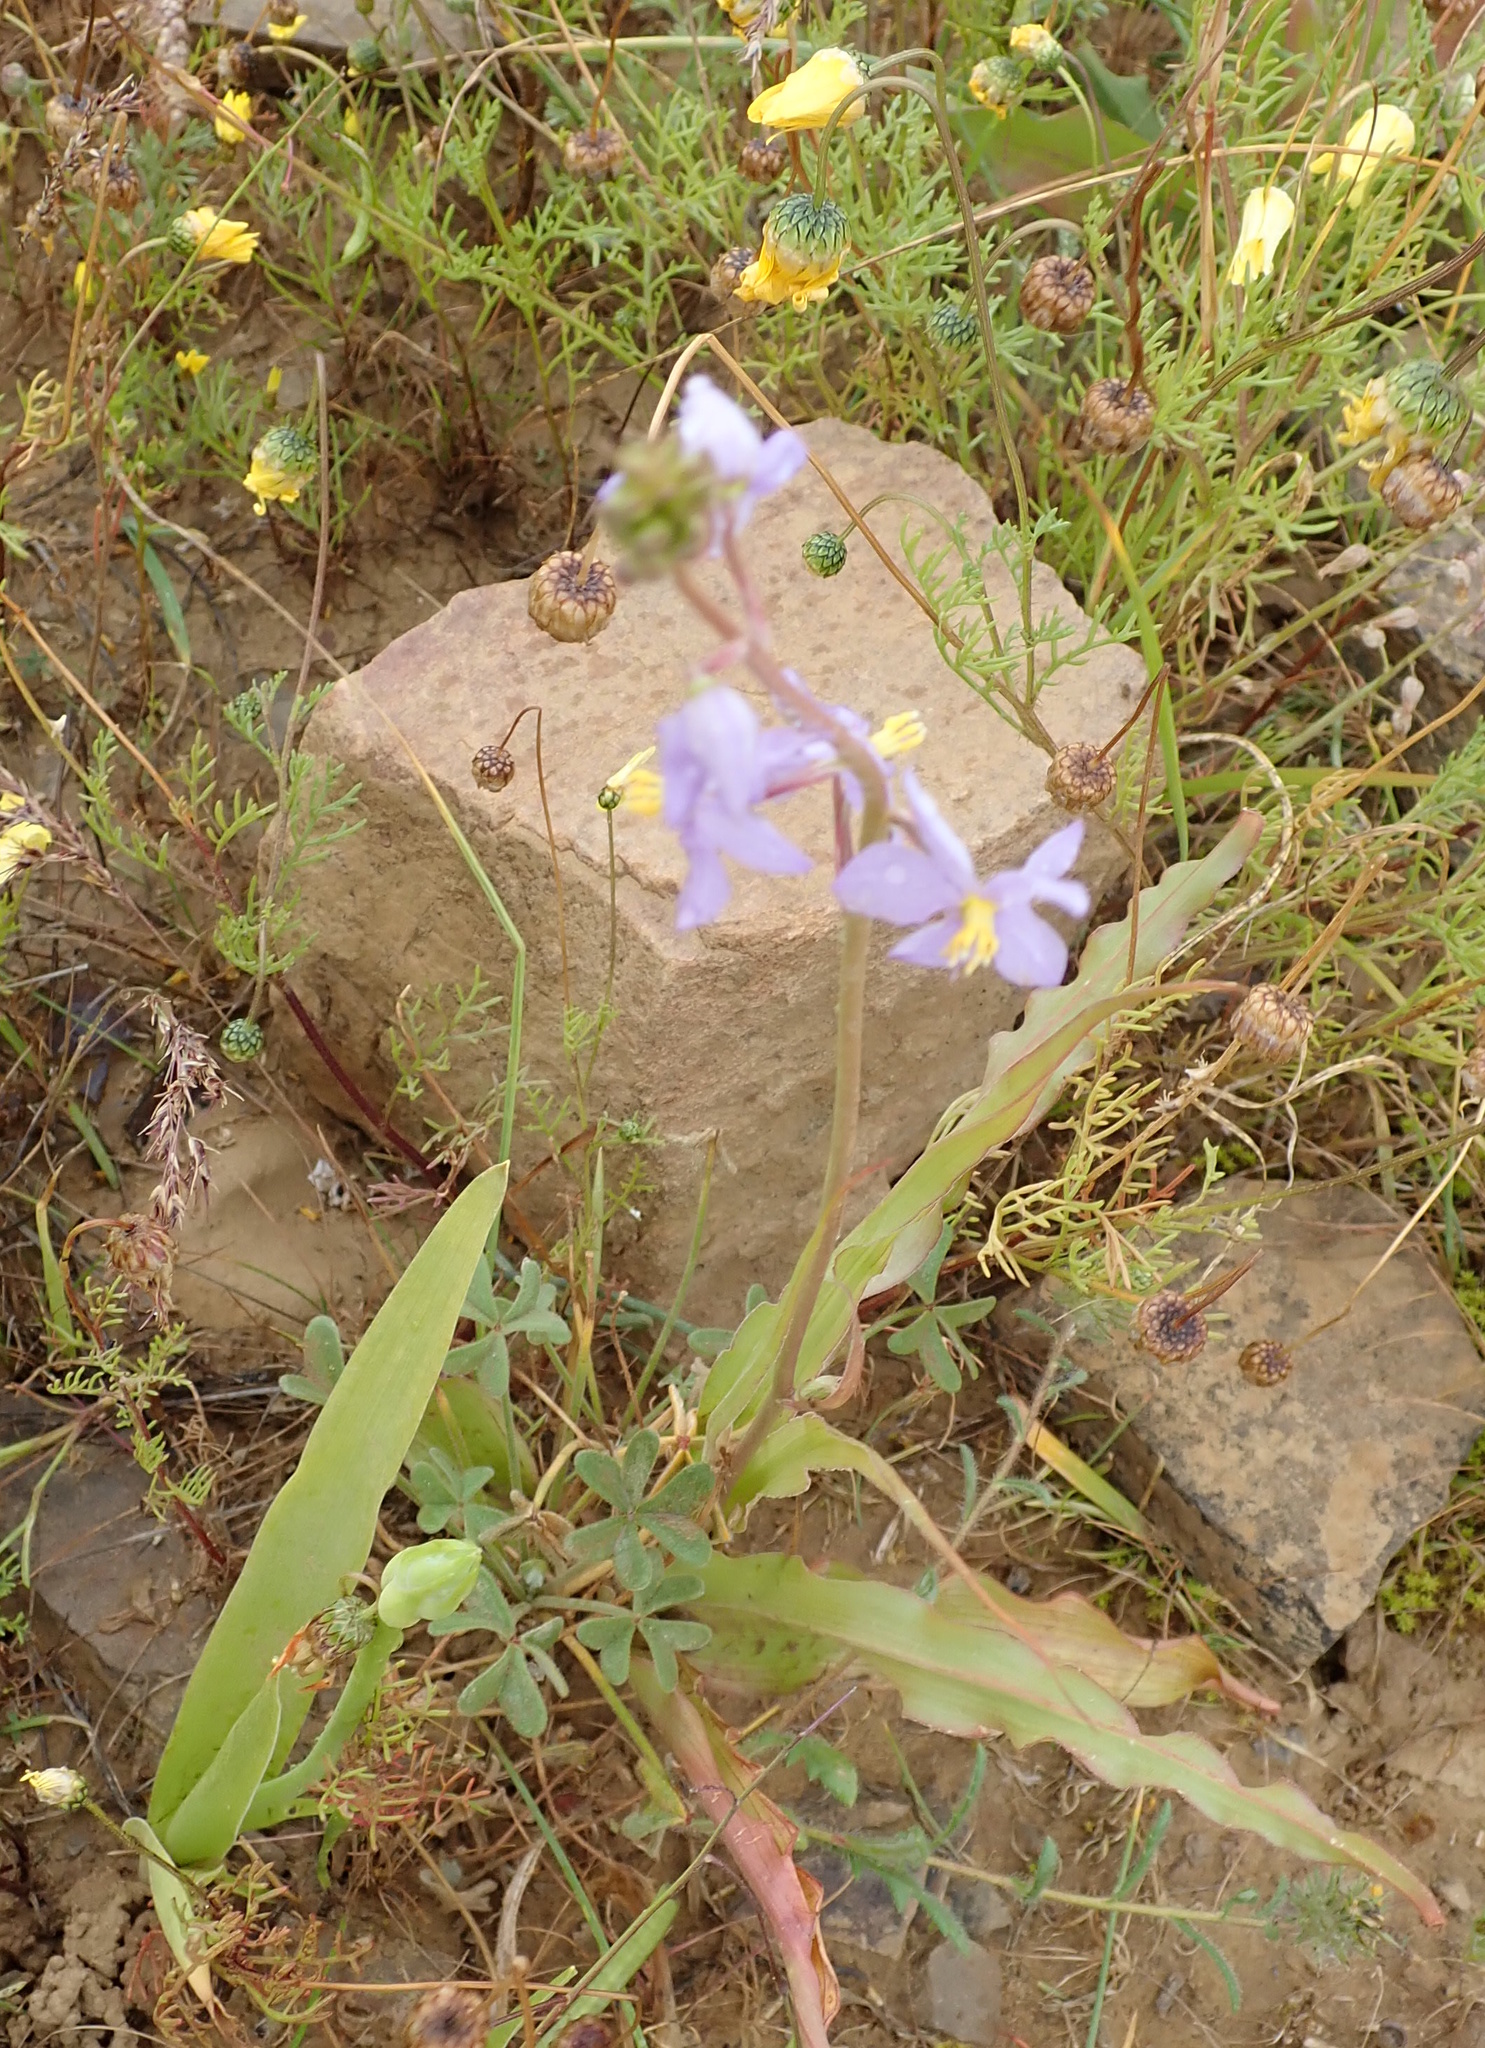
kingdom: Plantae
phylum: Tracheophyta
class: Liliopsida
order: Asparagales
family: Tecophilaeaceae
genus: Cyanella
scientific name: Cyanella hyacinthoides
